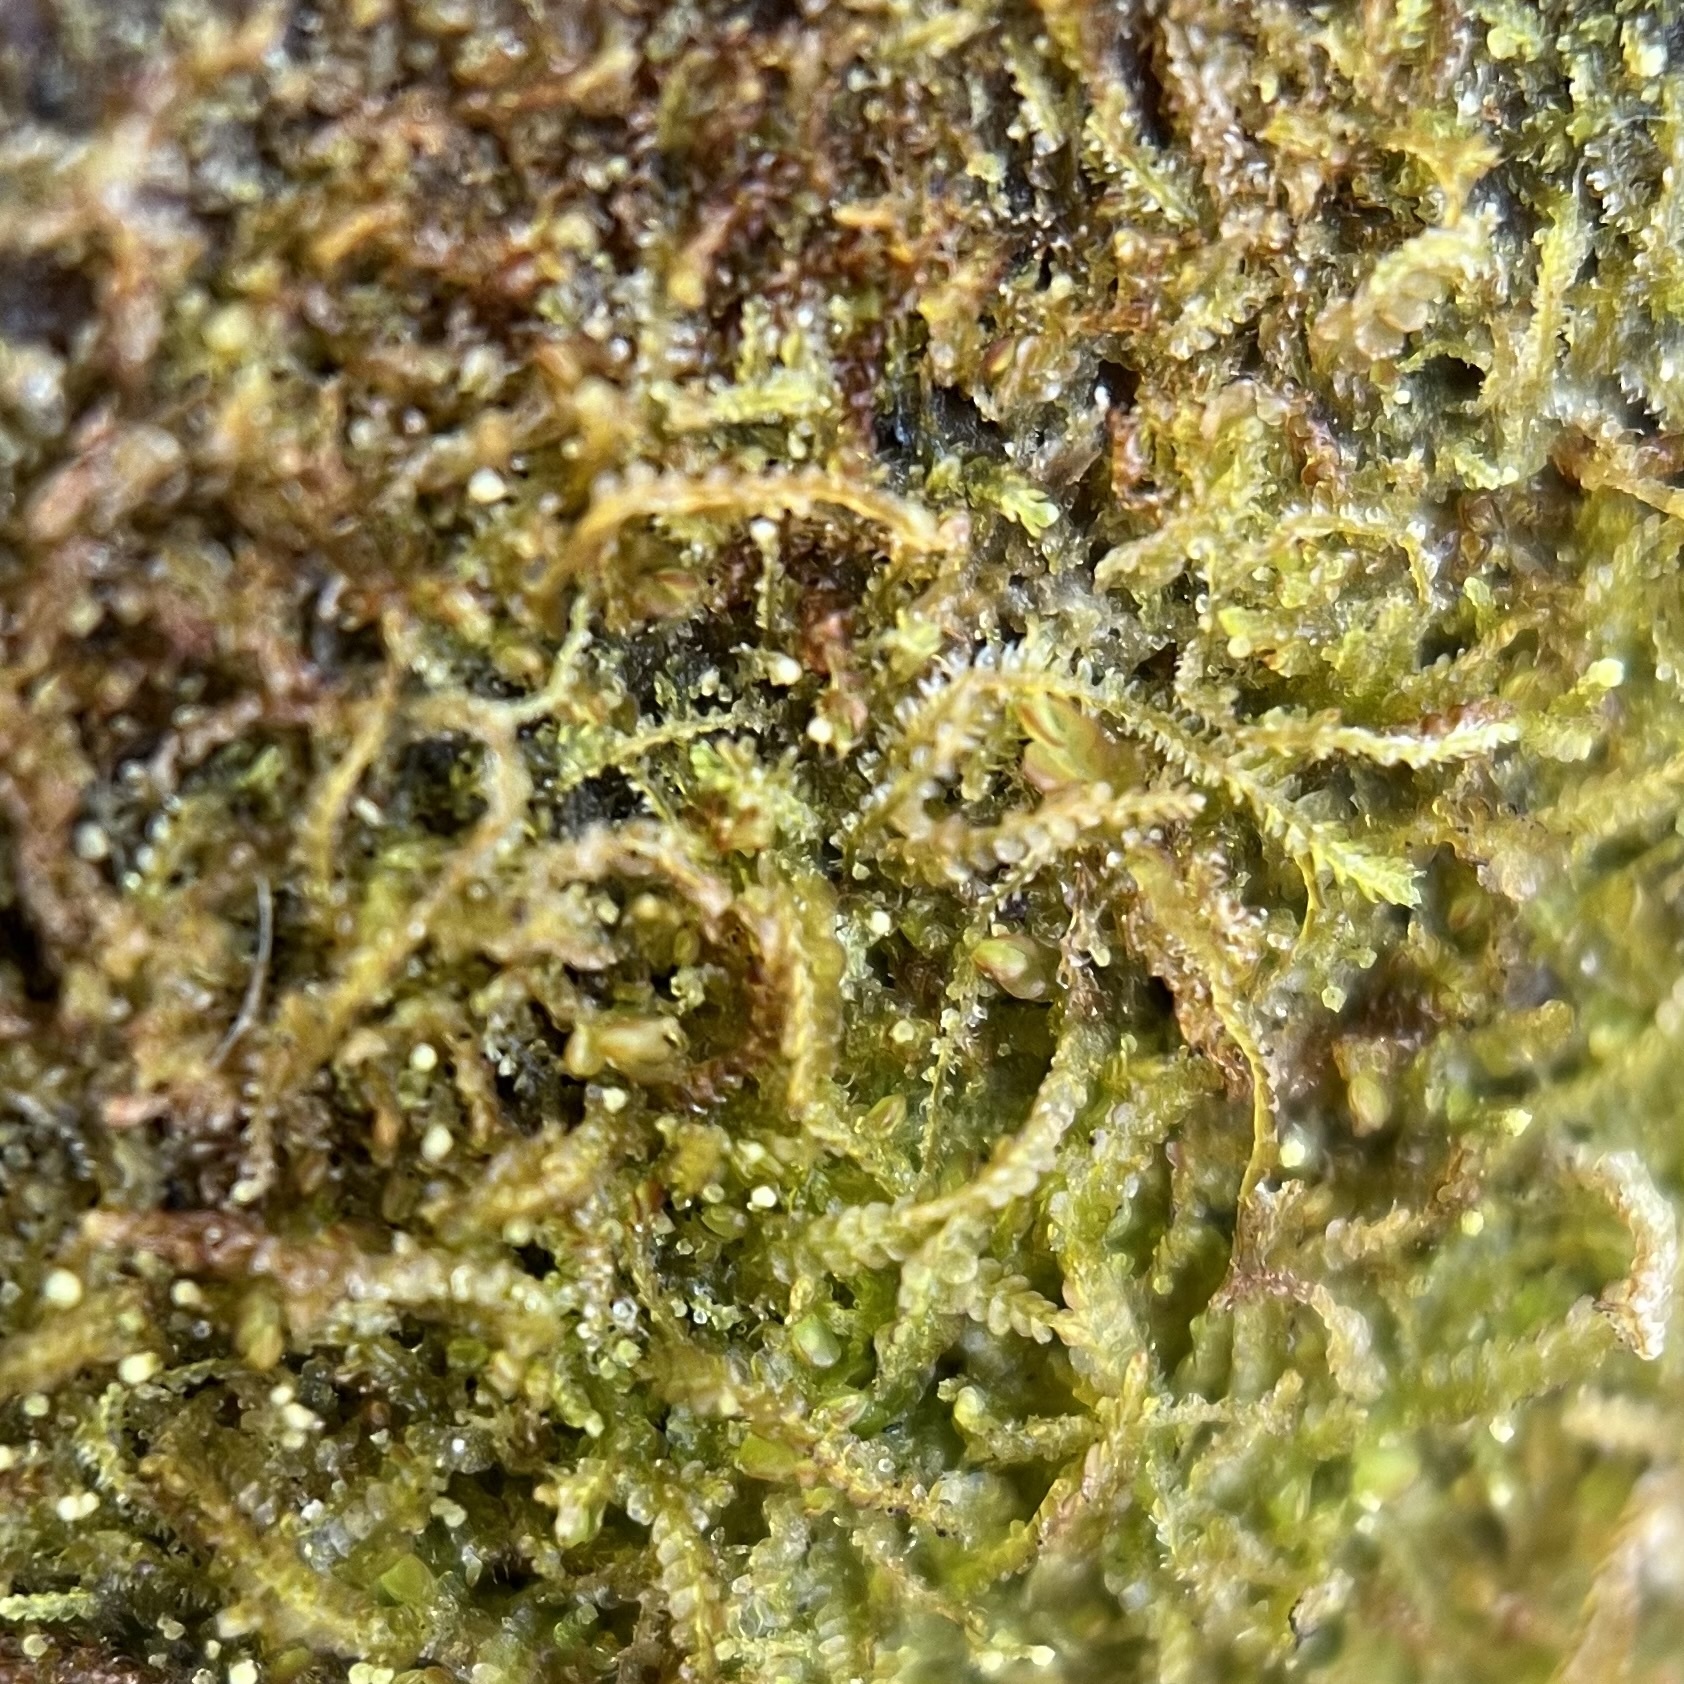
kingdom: Plantae
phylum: Marchantiophyta
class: Jungermanniopsida
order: Jungermanniales
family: Cephaloziaceae
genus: Nowellia
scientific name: Nowellia curvifolia
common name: Wood rustwort
